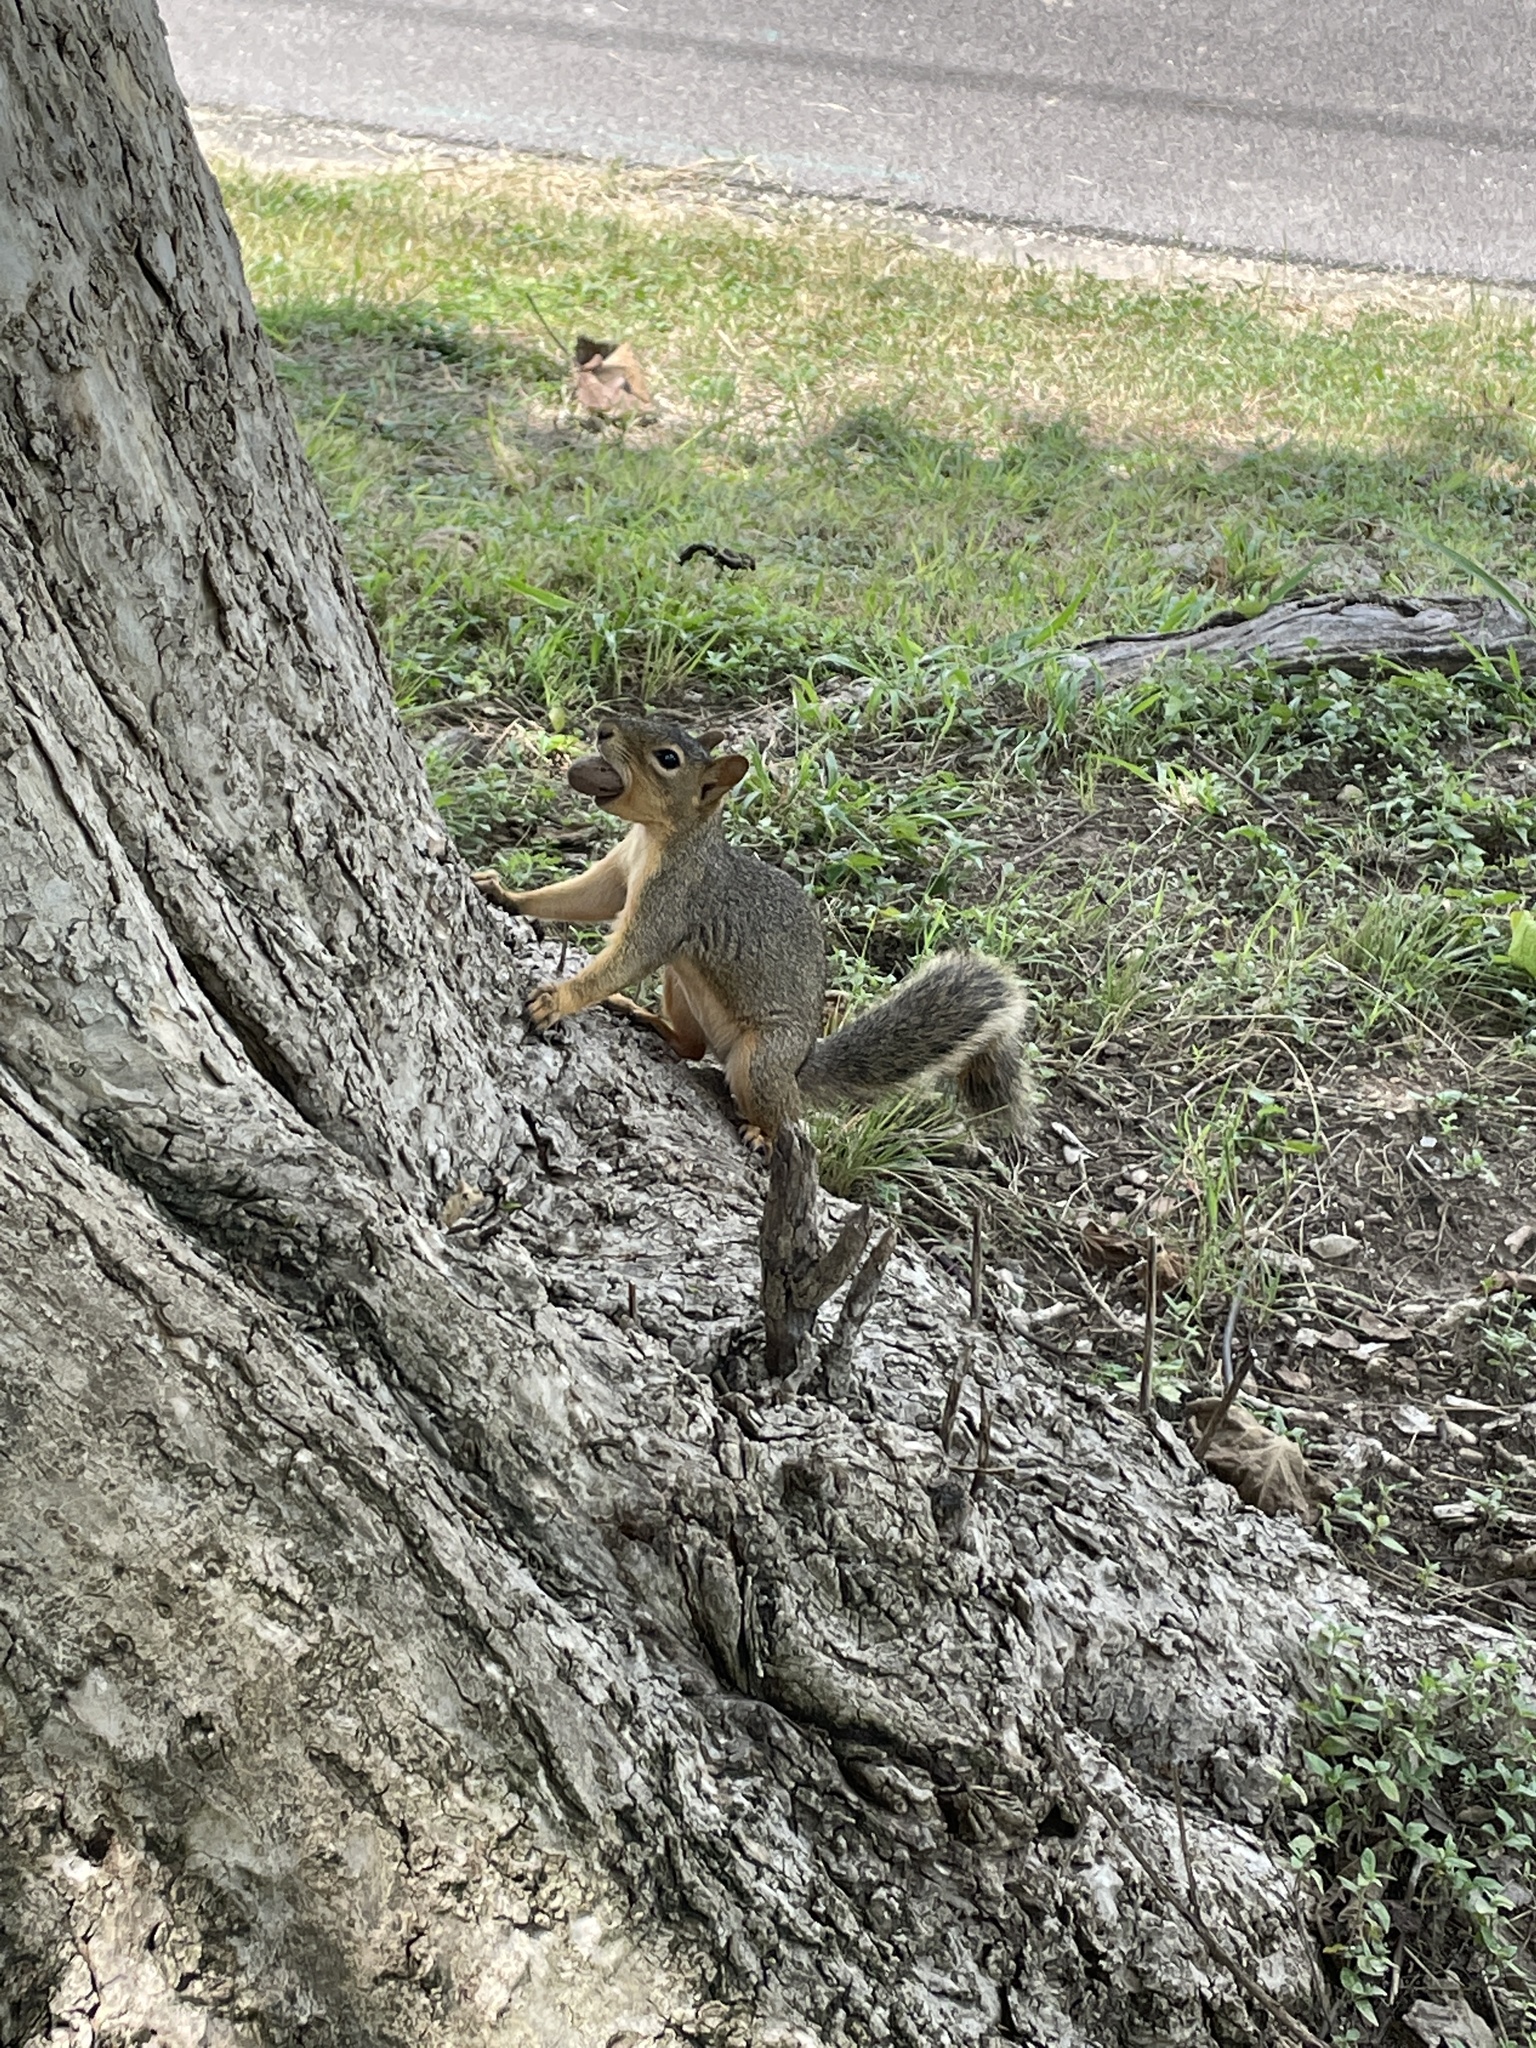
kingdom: Animalia
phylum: Chordata
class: Mammalia
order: Rodentia
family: Sciuridae
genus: Sciurus
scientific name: Sciurus niger
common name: Fox squirrel
